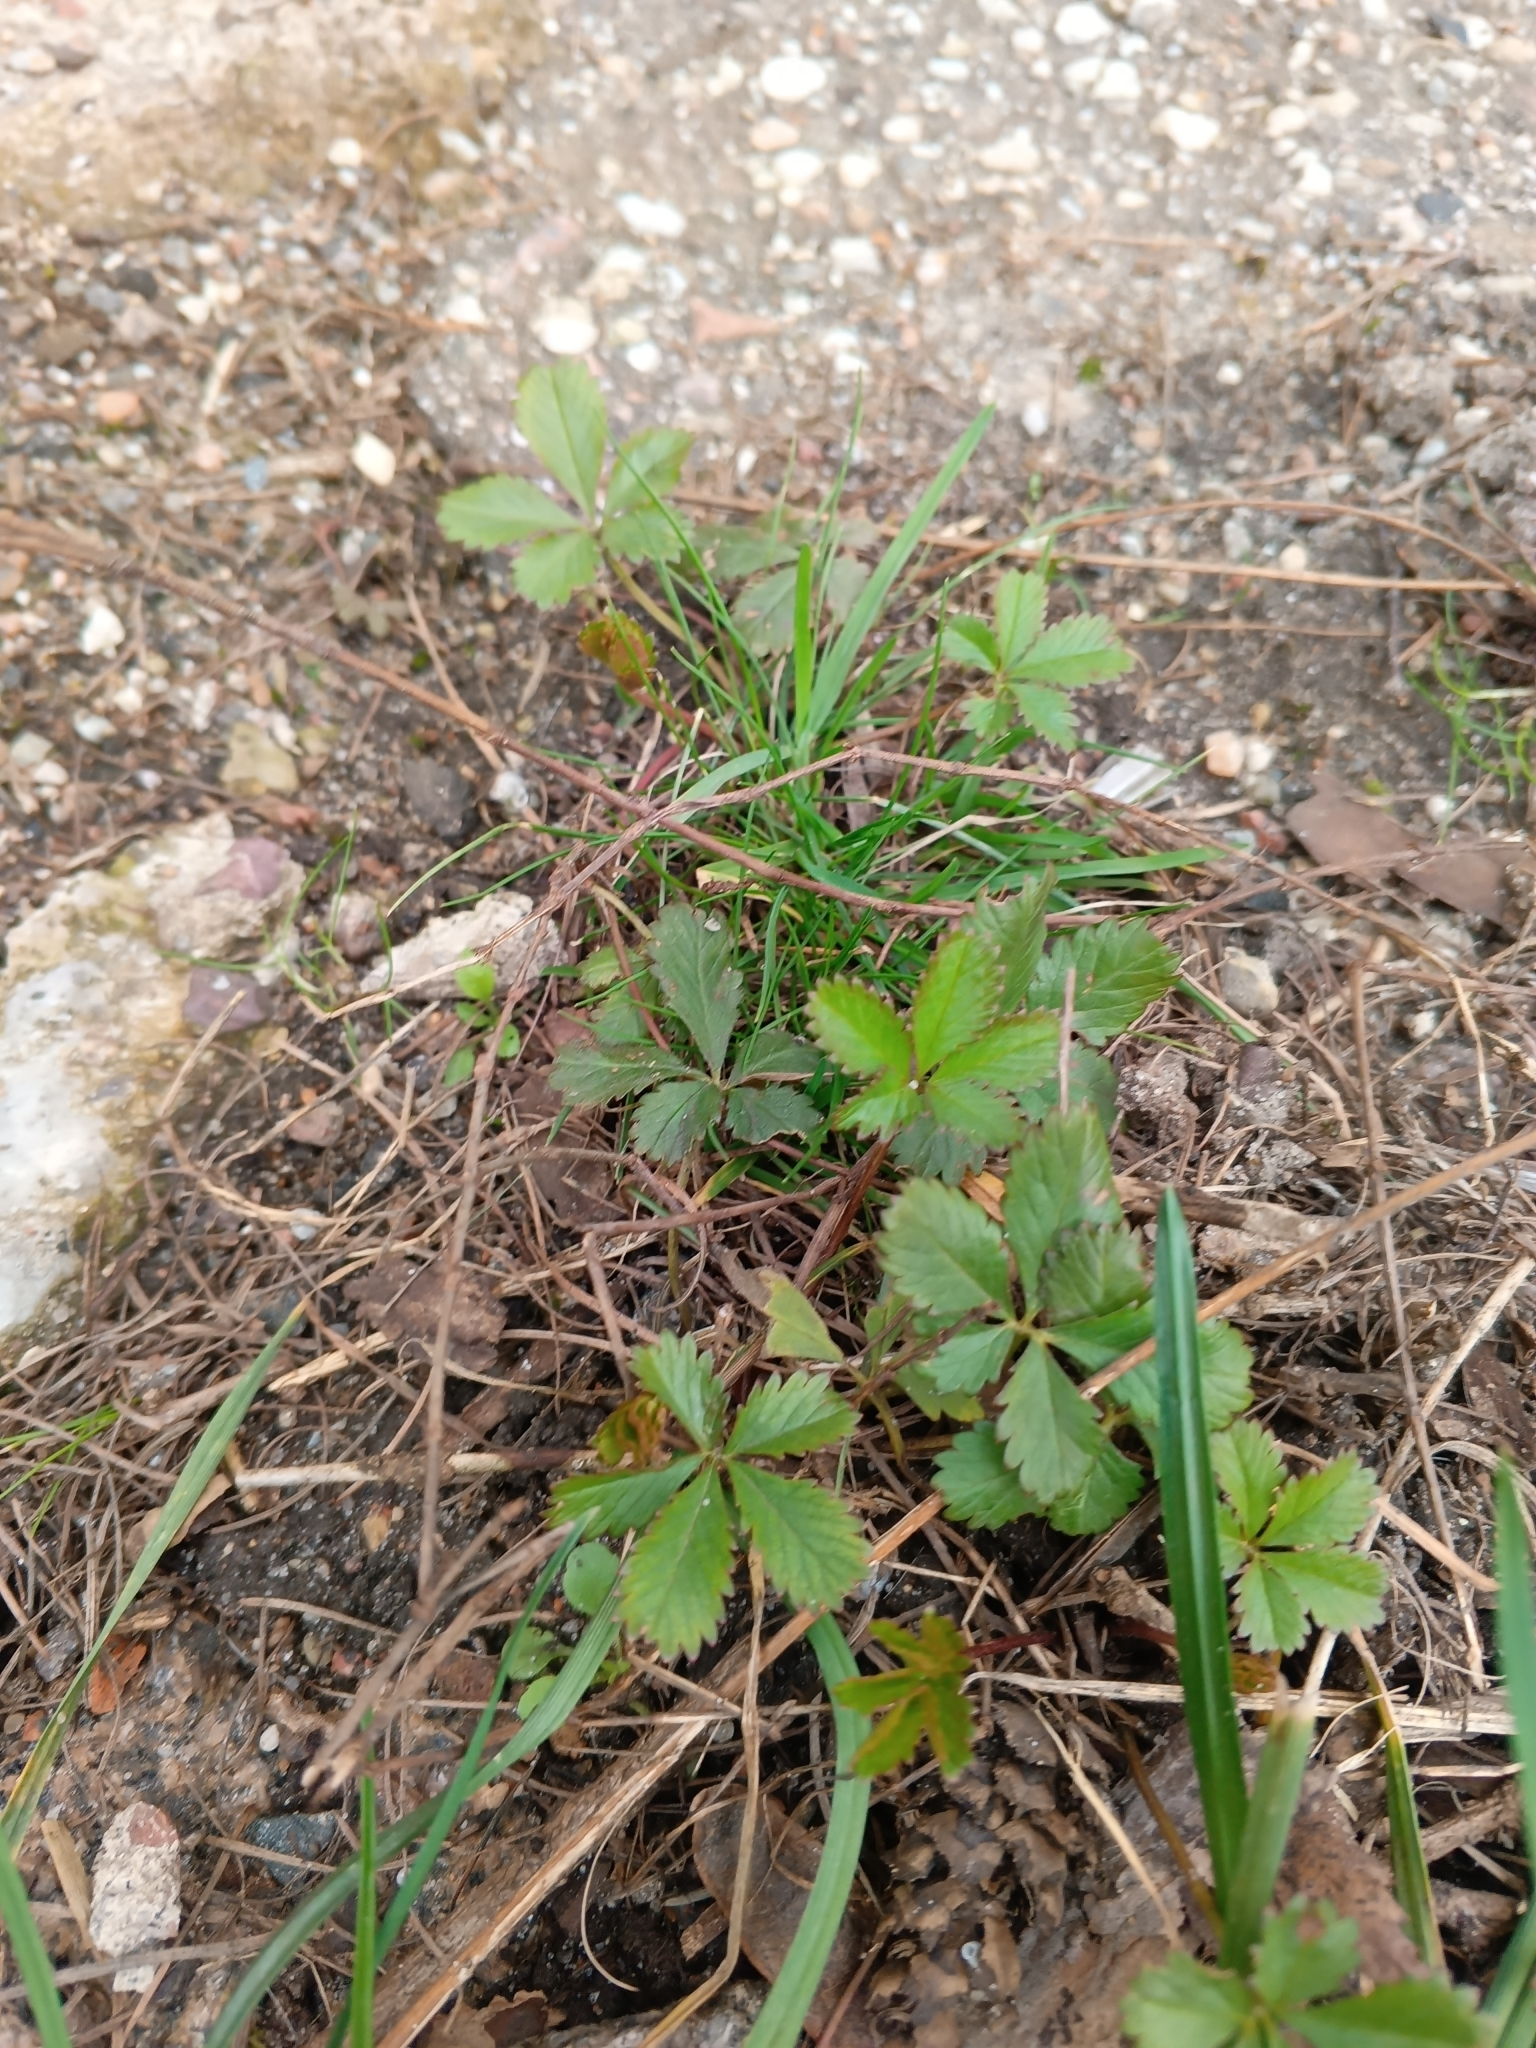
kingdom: Plantae
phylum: Tracheophyta
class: Magnoliopsida
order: Rosales
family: Rosaceae
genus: Potentilla
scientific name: Potentilla reptans
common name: Creeping cinquefoil
